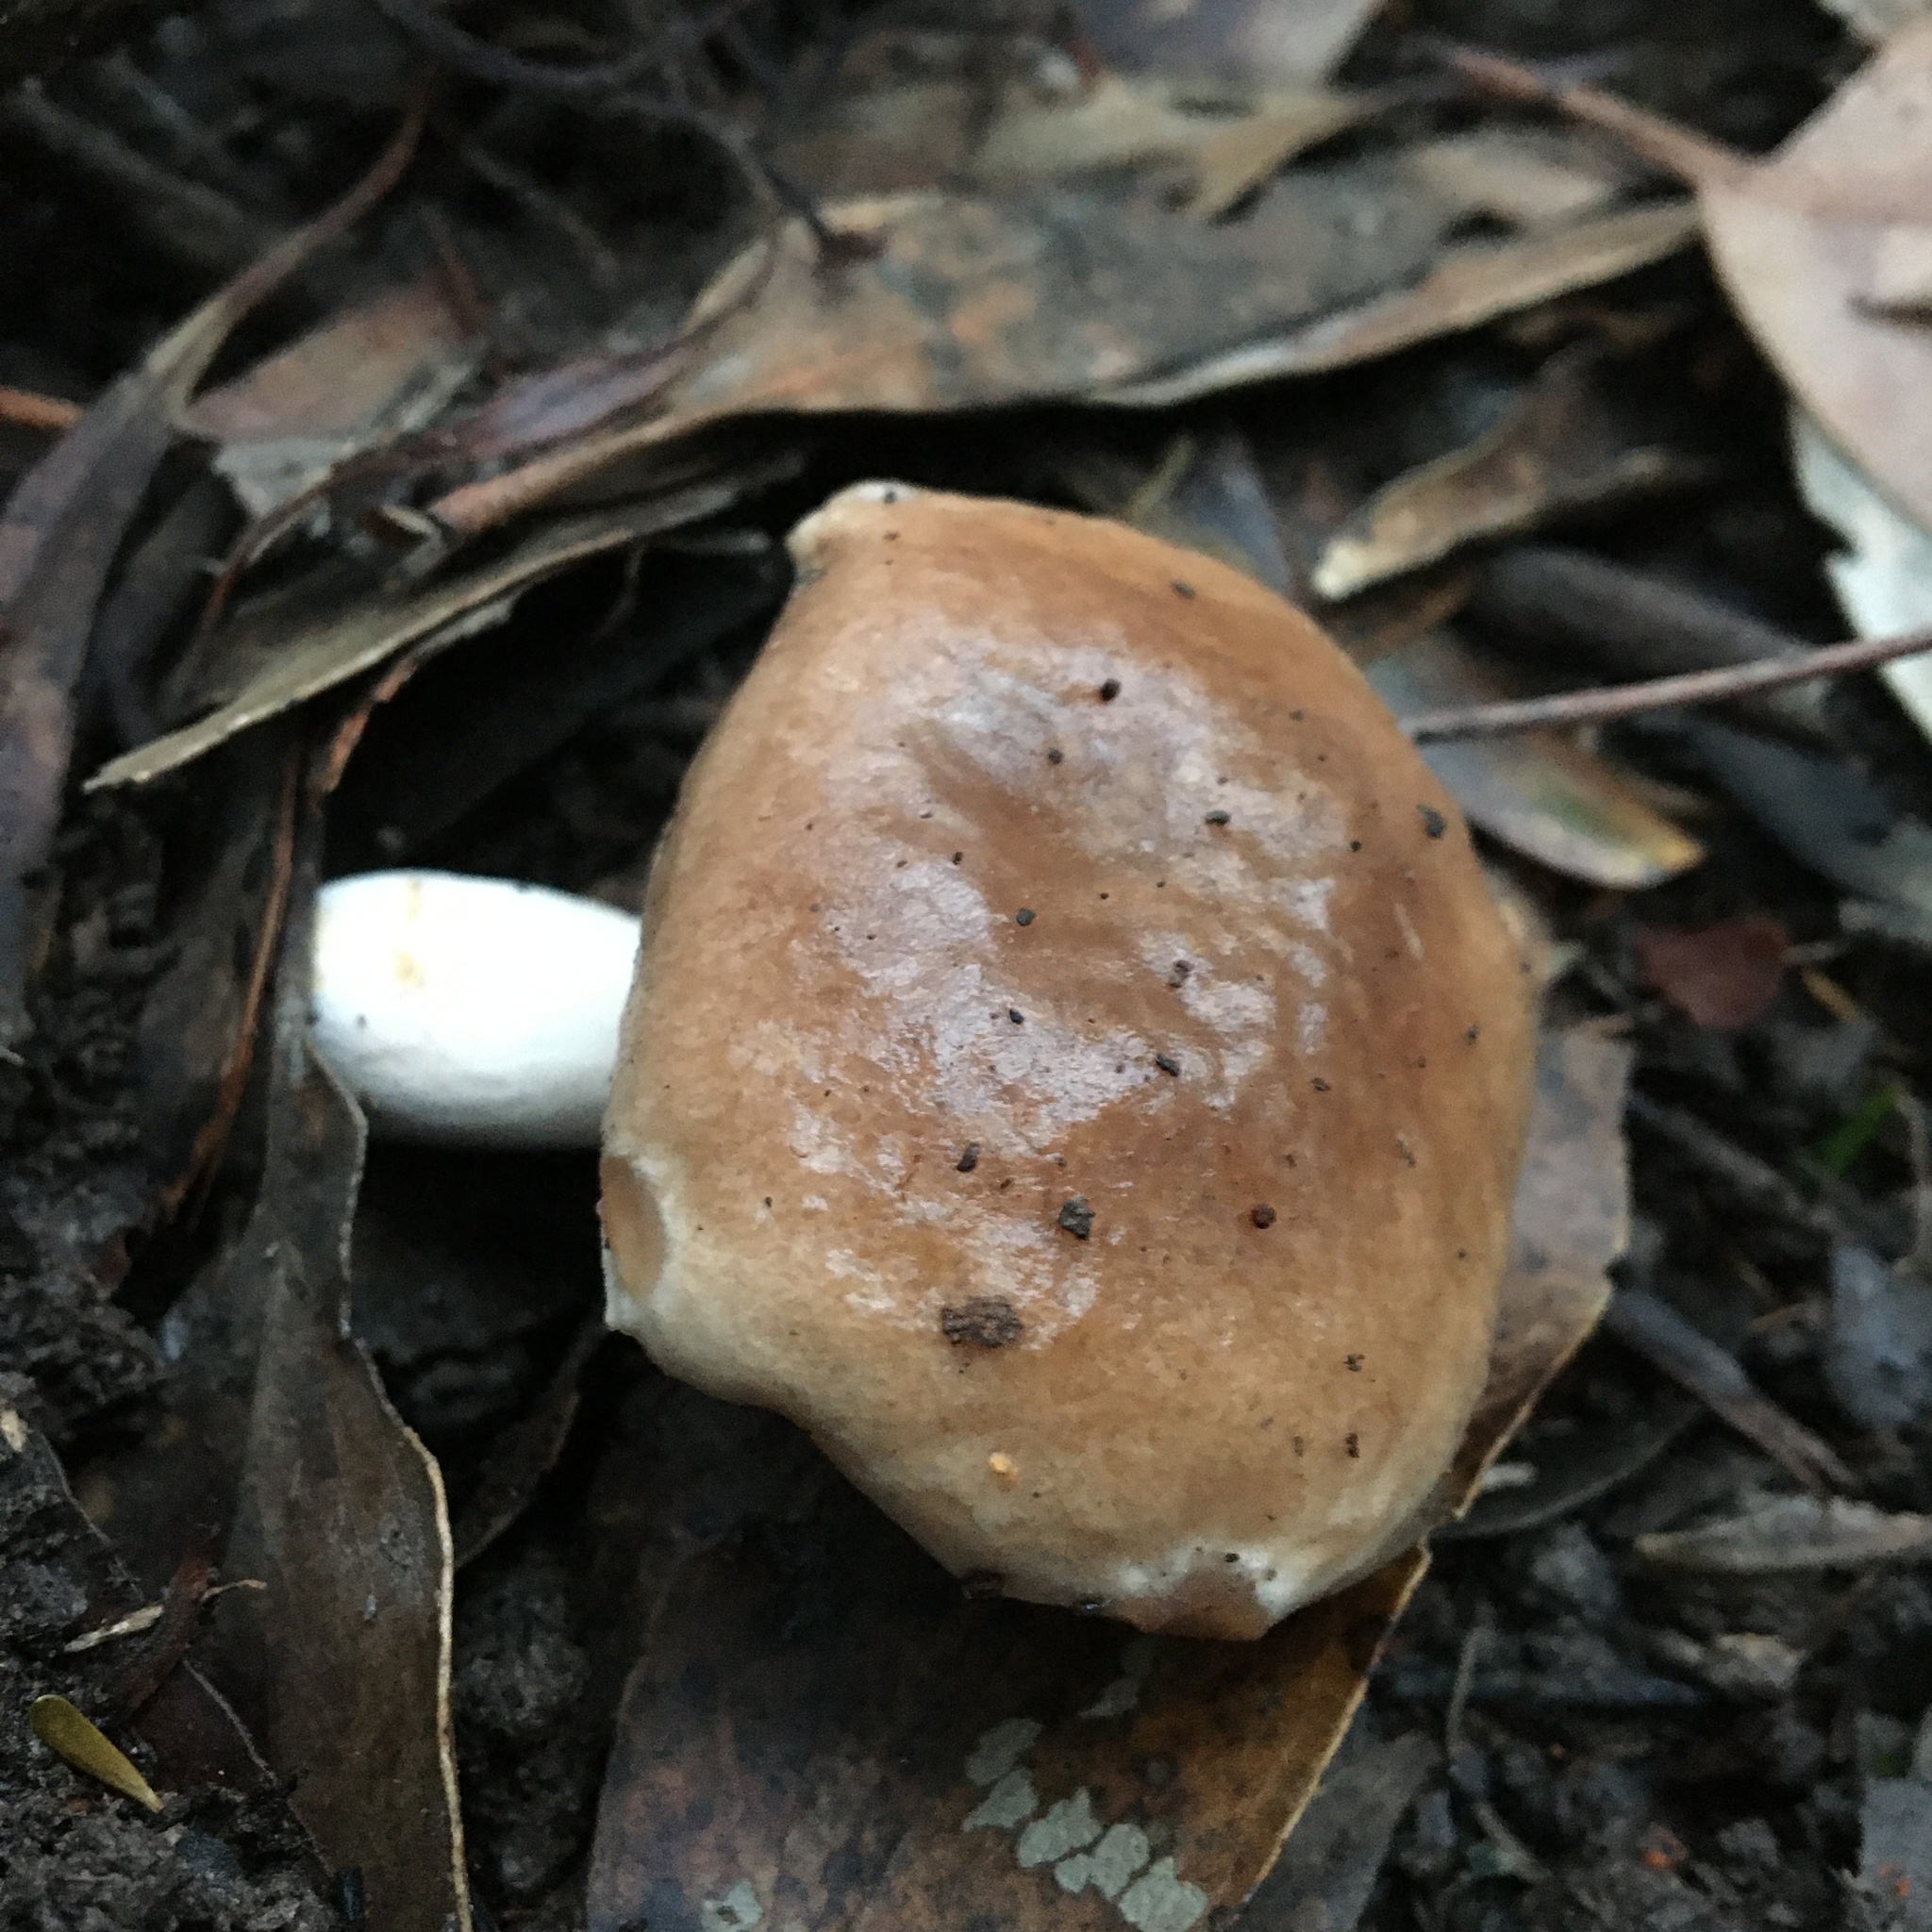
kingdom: Fungi
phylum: Basidiomycota
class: Agaricomycetes
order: Boletales
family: Boletaceae
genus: Fistulinella
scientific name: Fistulinella mollis
